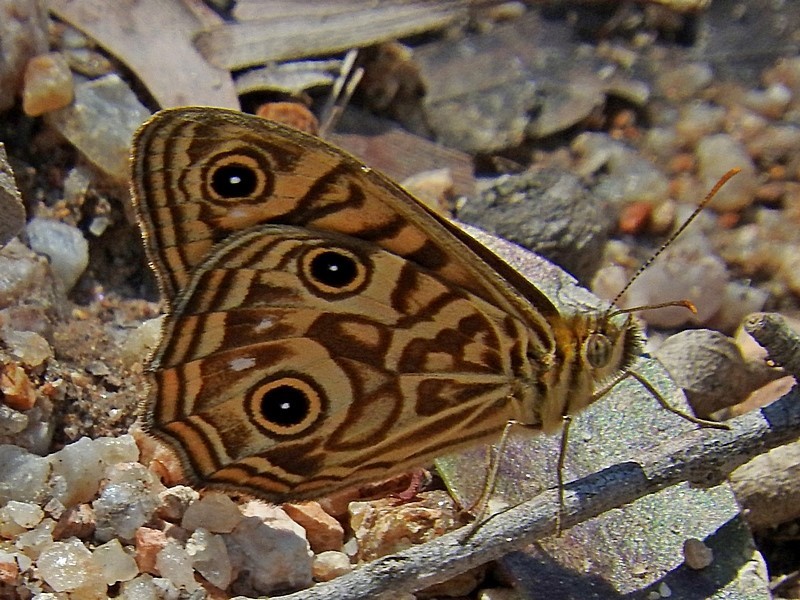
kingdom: Animalia
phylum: Arthropoda
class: Insecta
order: Lepidoptera
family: Nymphalidae
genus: Geitoneura
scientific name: Geitoneura acantha
